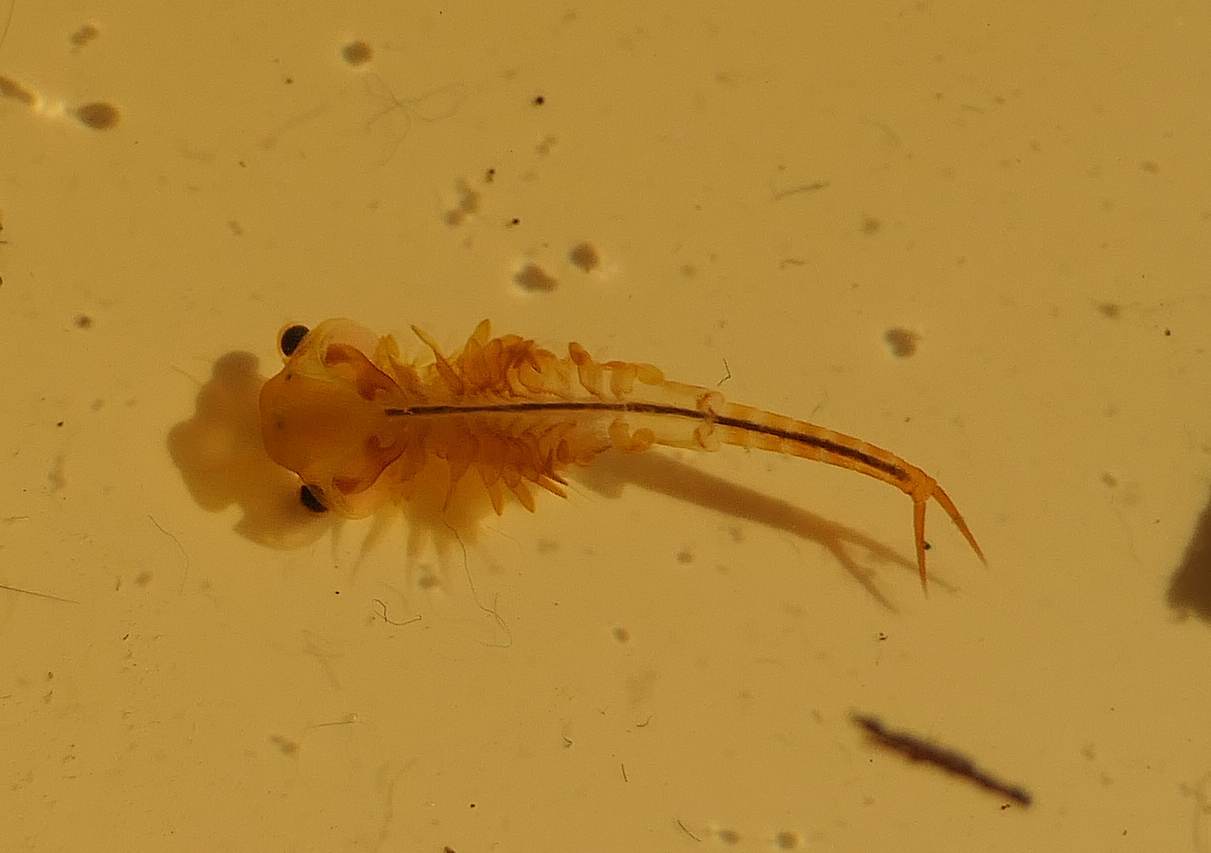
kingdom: Animalia
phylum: Arthropoda
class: Branchiopoda
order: Anostraca
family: Chirocephalidae
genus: Eubranchipus
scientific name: Eubranchipus bundyi
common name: Knob-lip fairy shrimp
